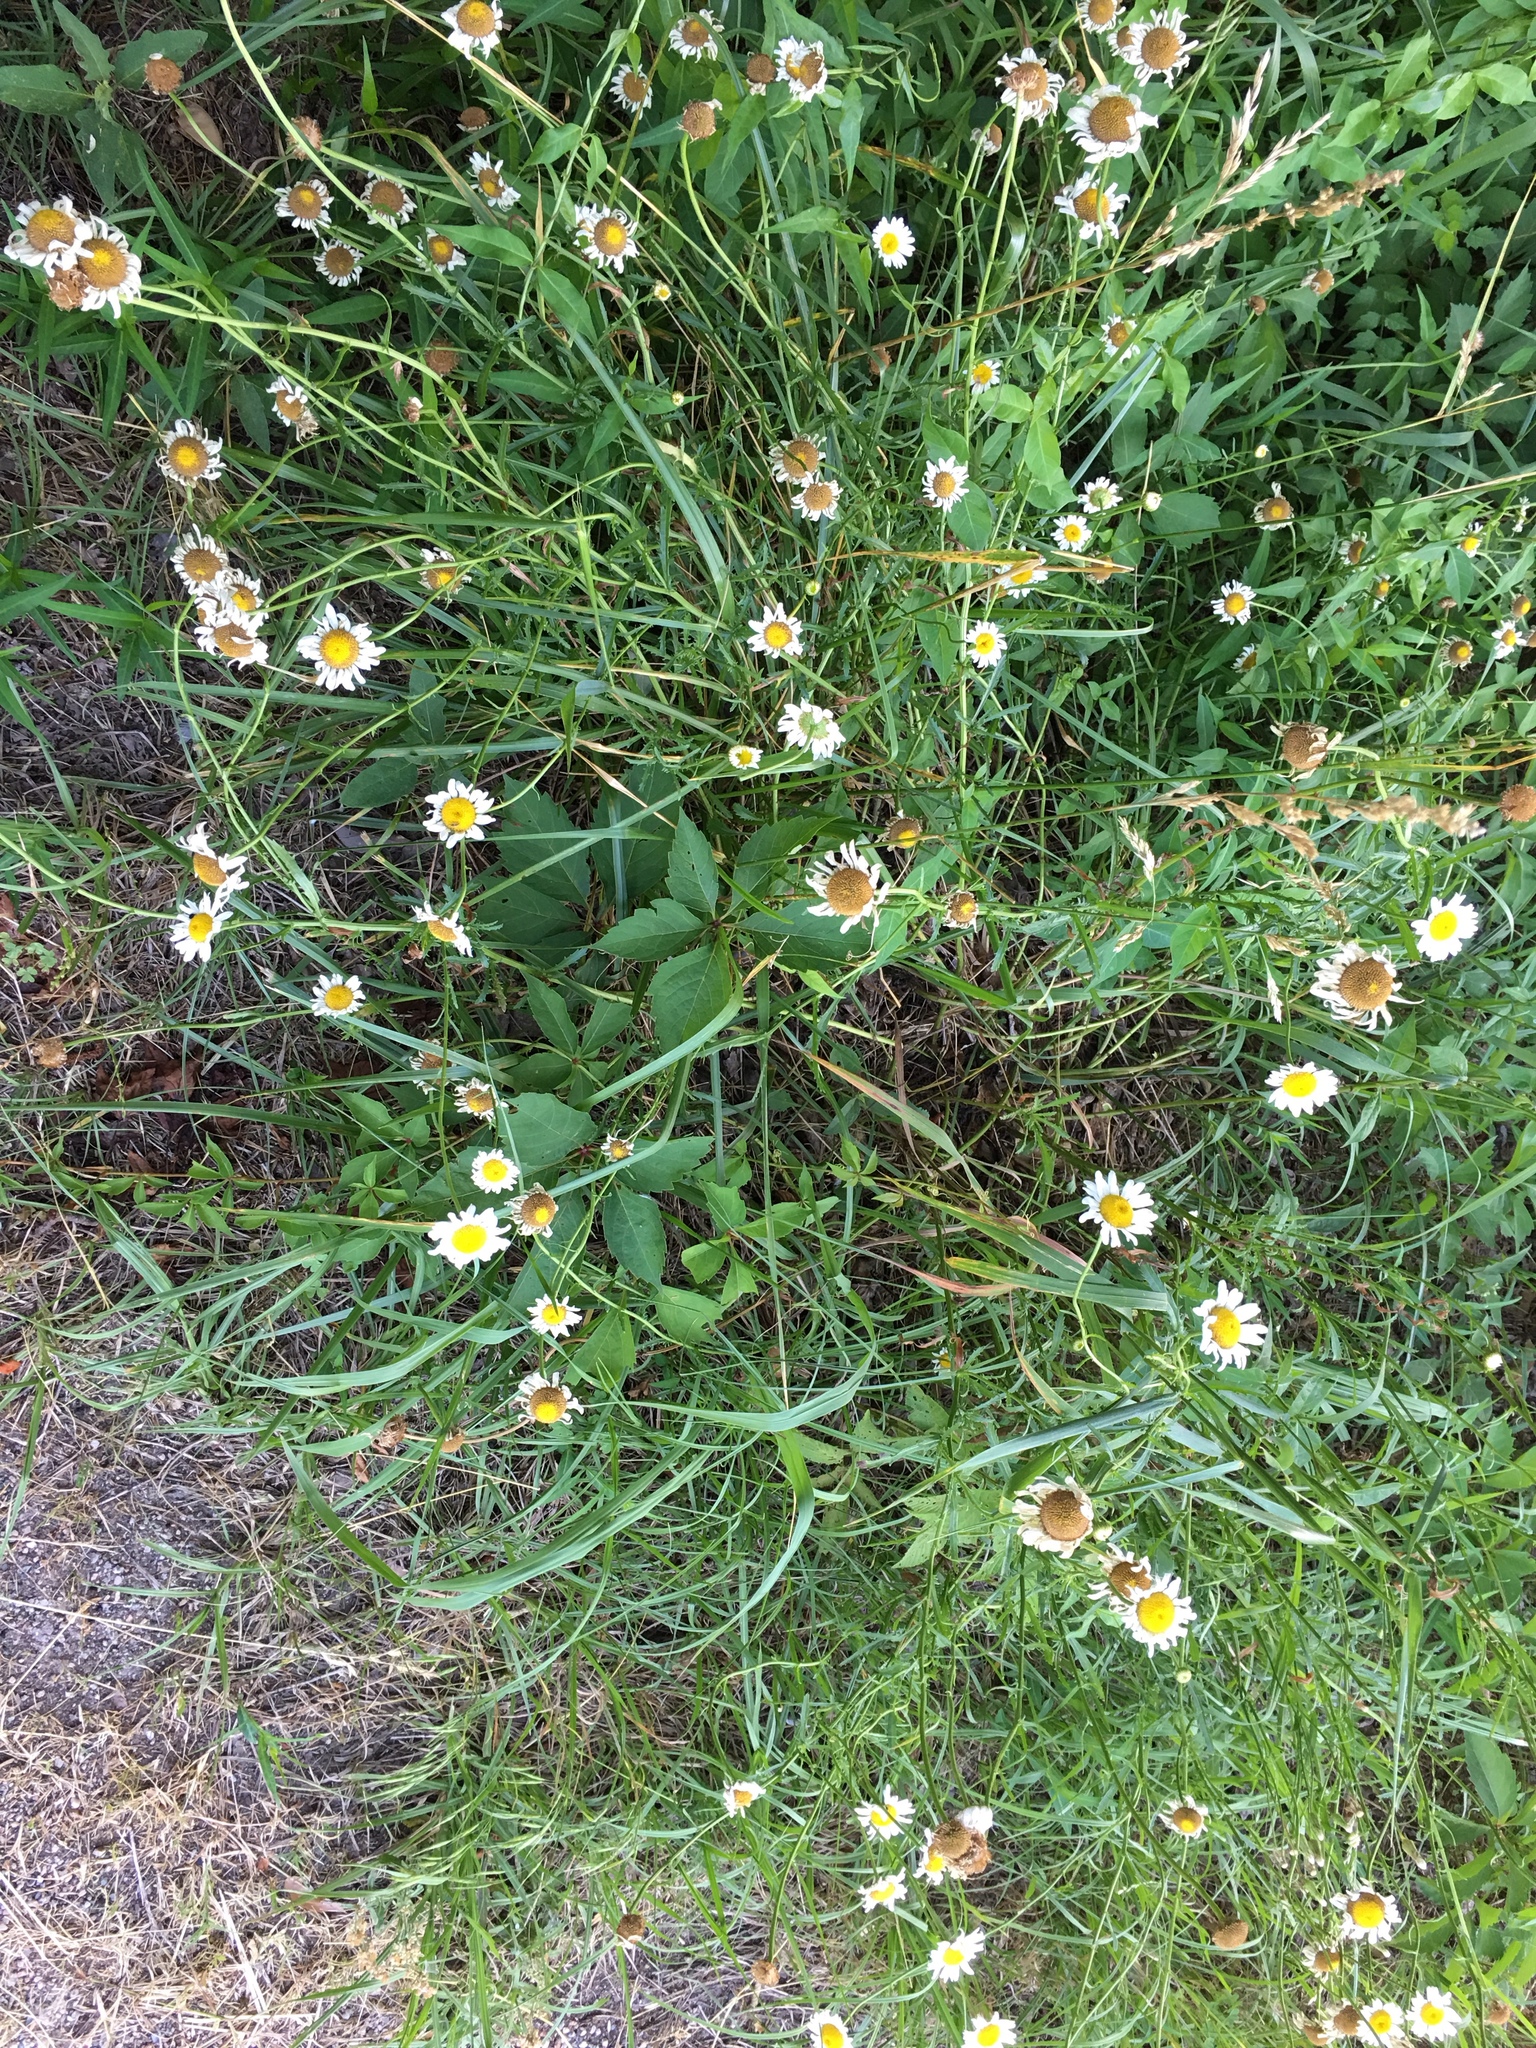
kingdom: Plantae
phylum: Tracheophyta
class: Magnoliopsida
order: Asterales
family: Asteraceae
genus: Leucanthemum
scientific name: Leucanthemum vulgare
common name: Oxeye daisy
